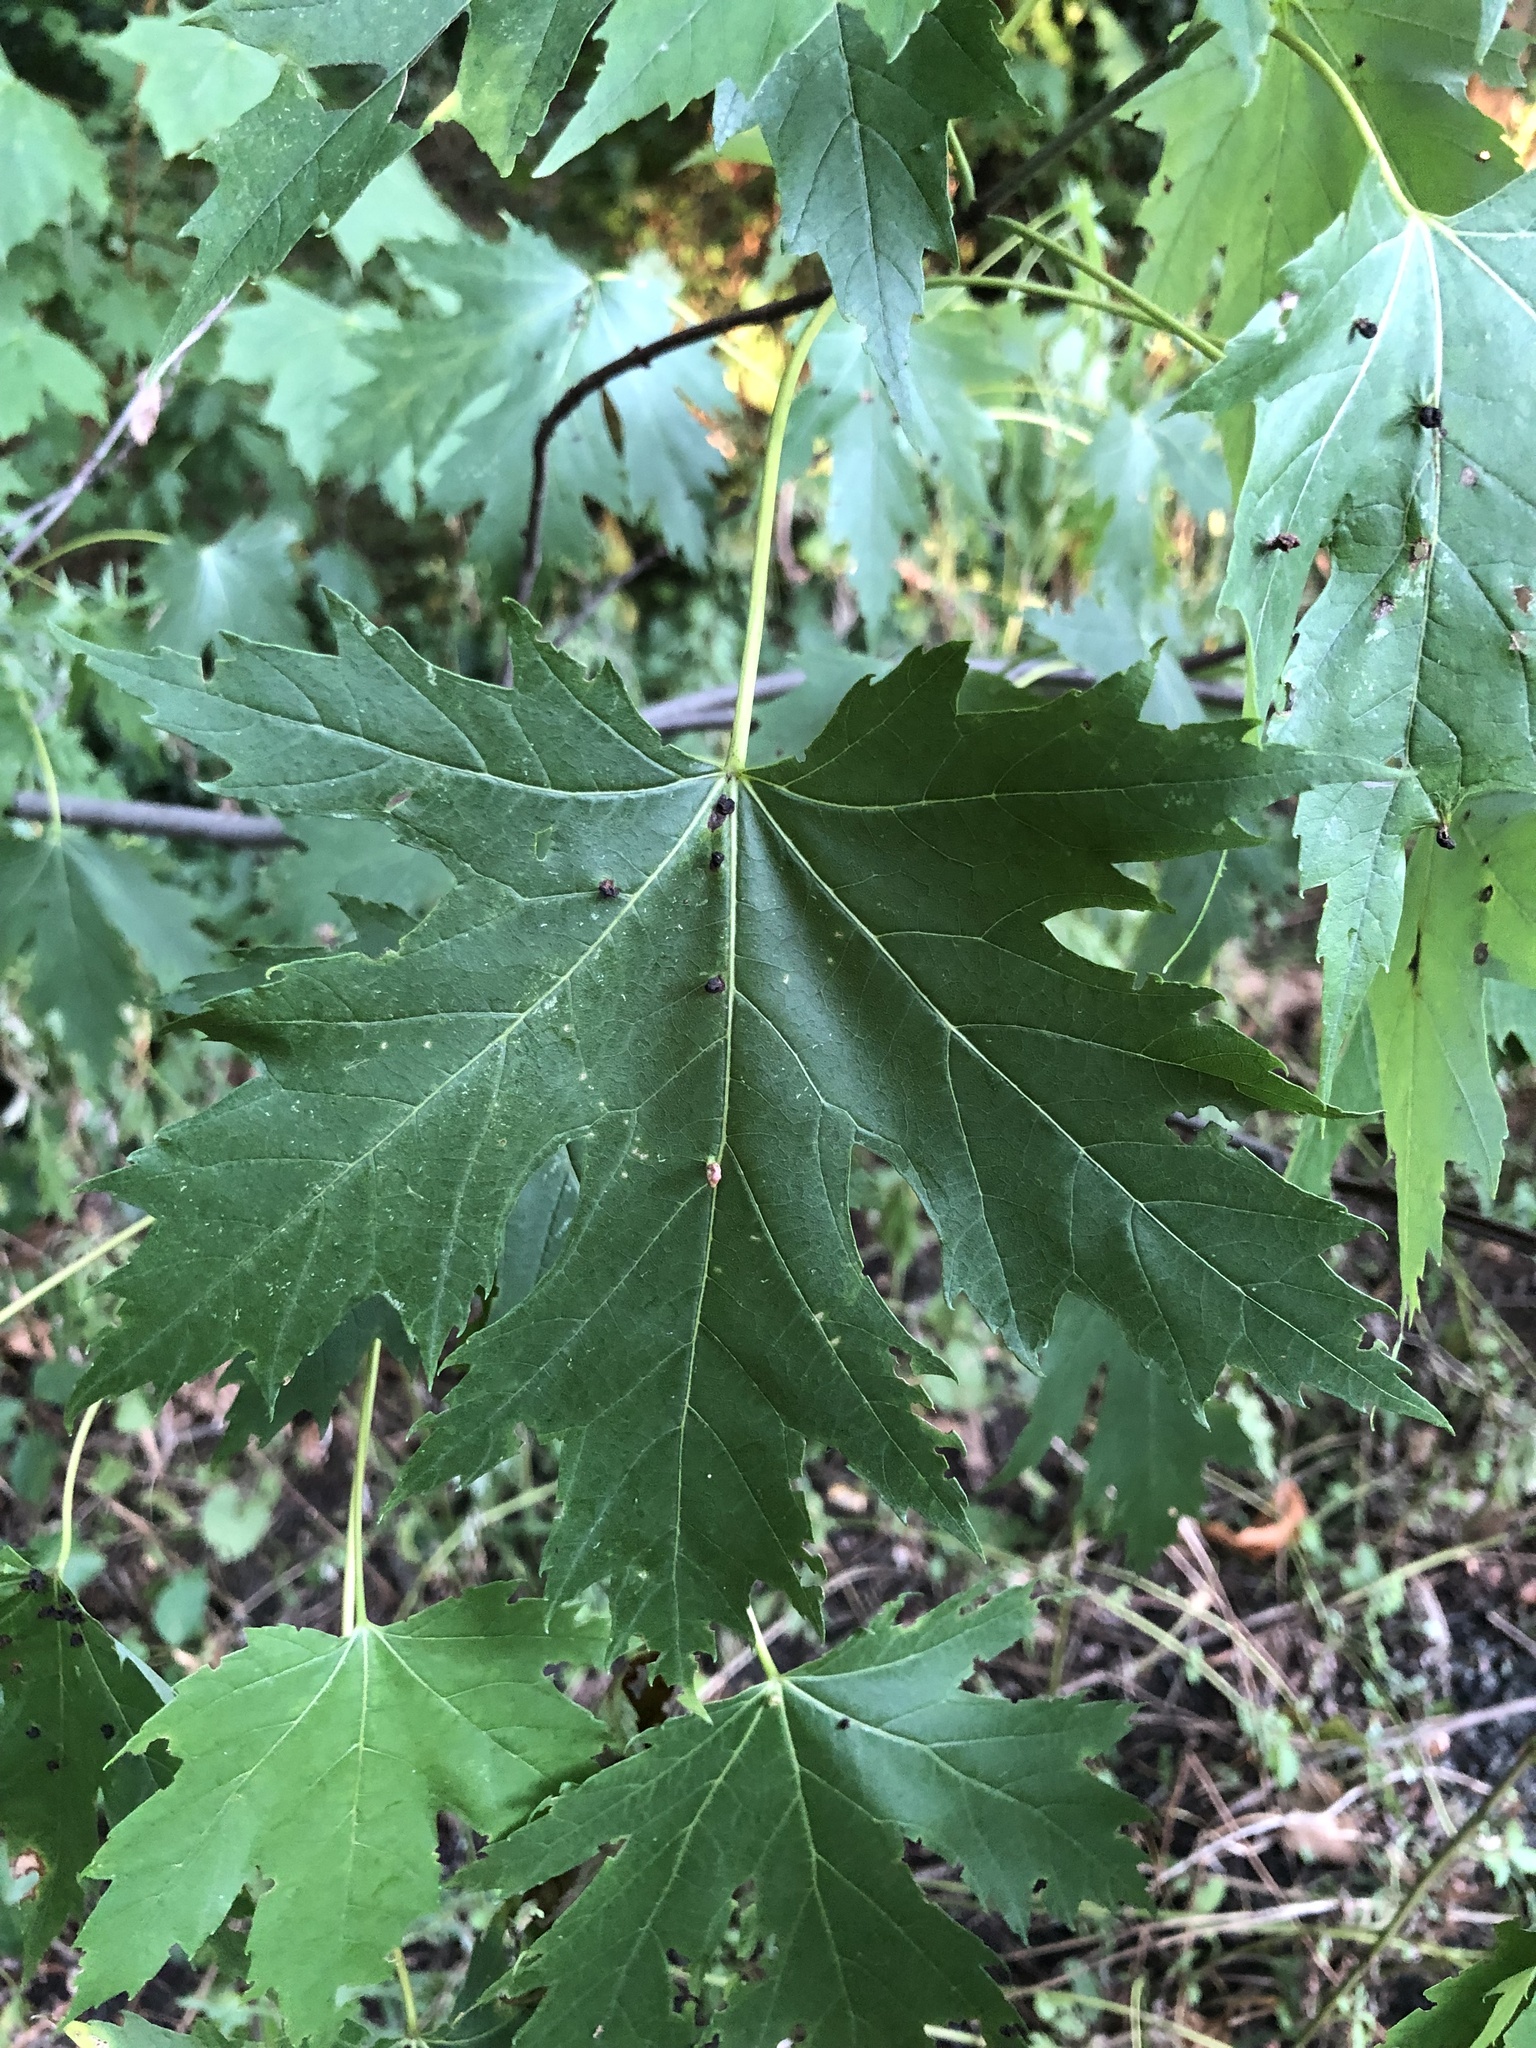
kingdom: Plantae
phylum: Tracheophyta
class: Magnoliopsida
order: Sapindales
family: Sapindaceae
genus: Acer
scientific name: Acer saccharinum
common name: Silver maple
